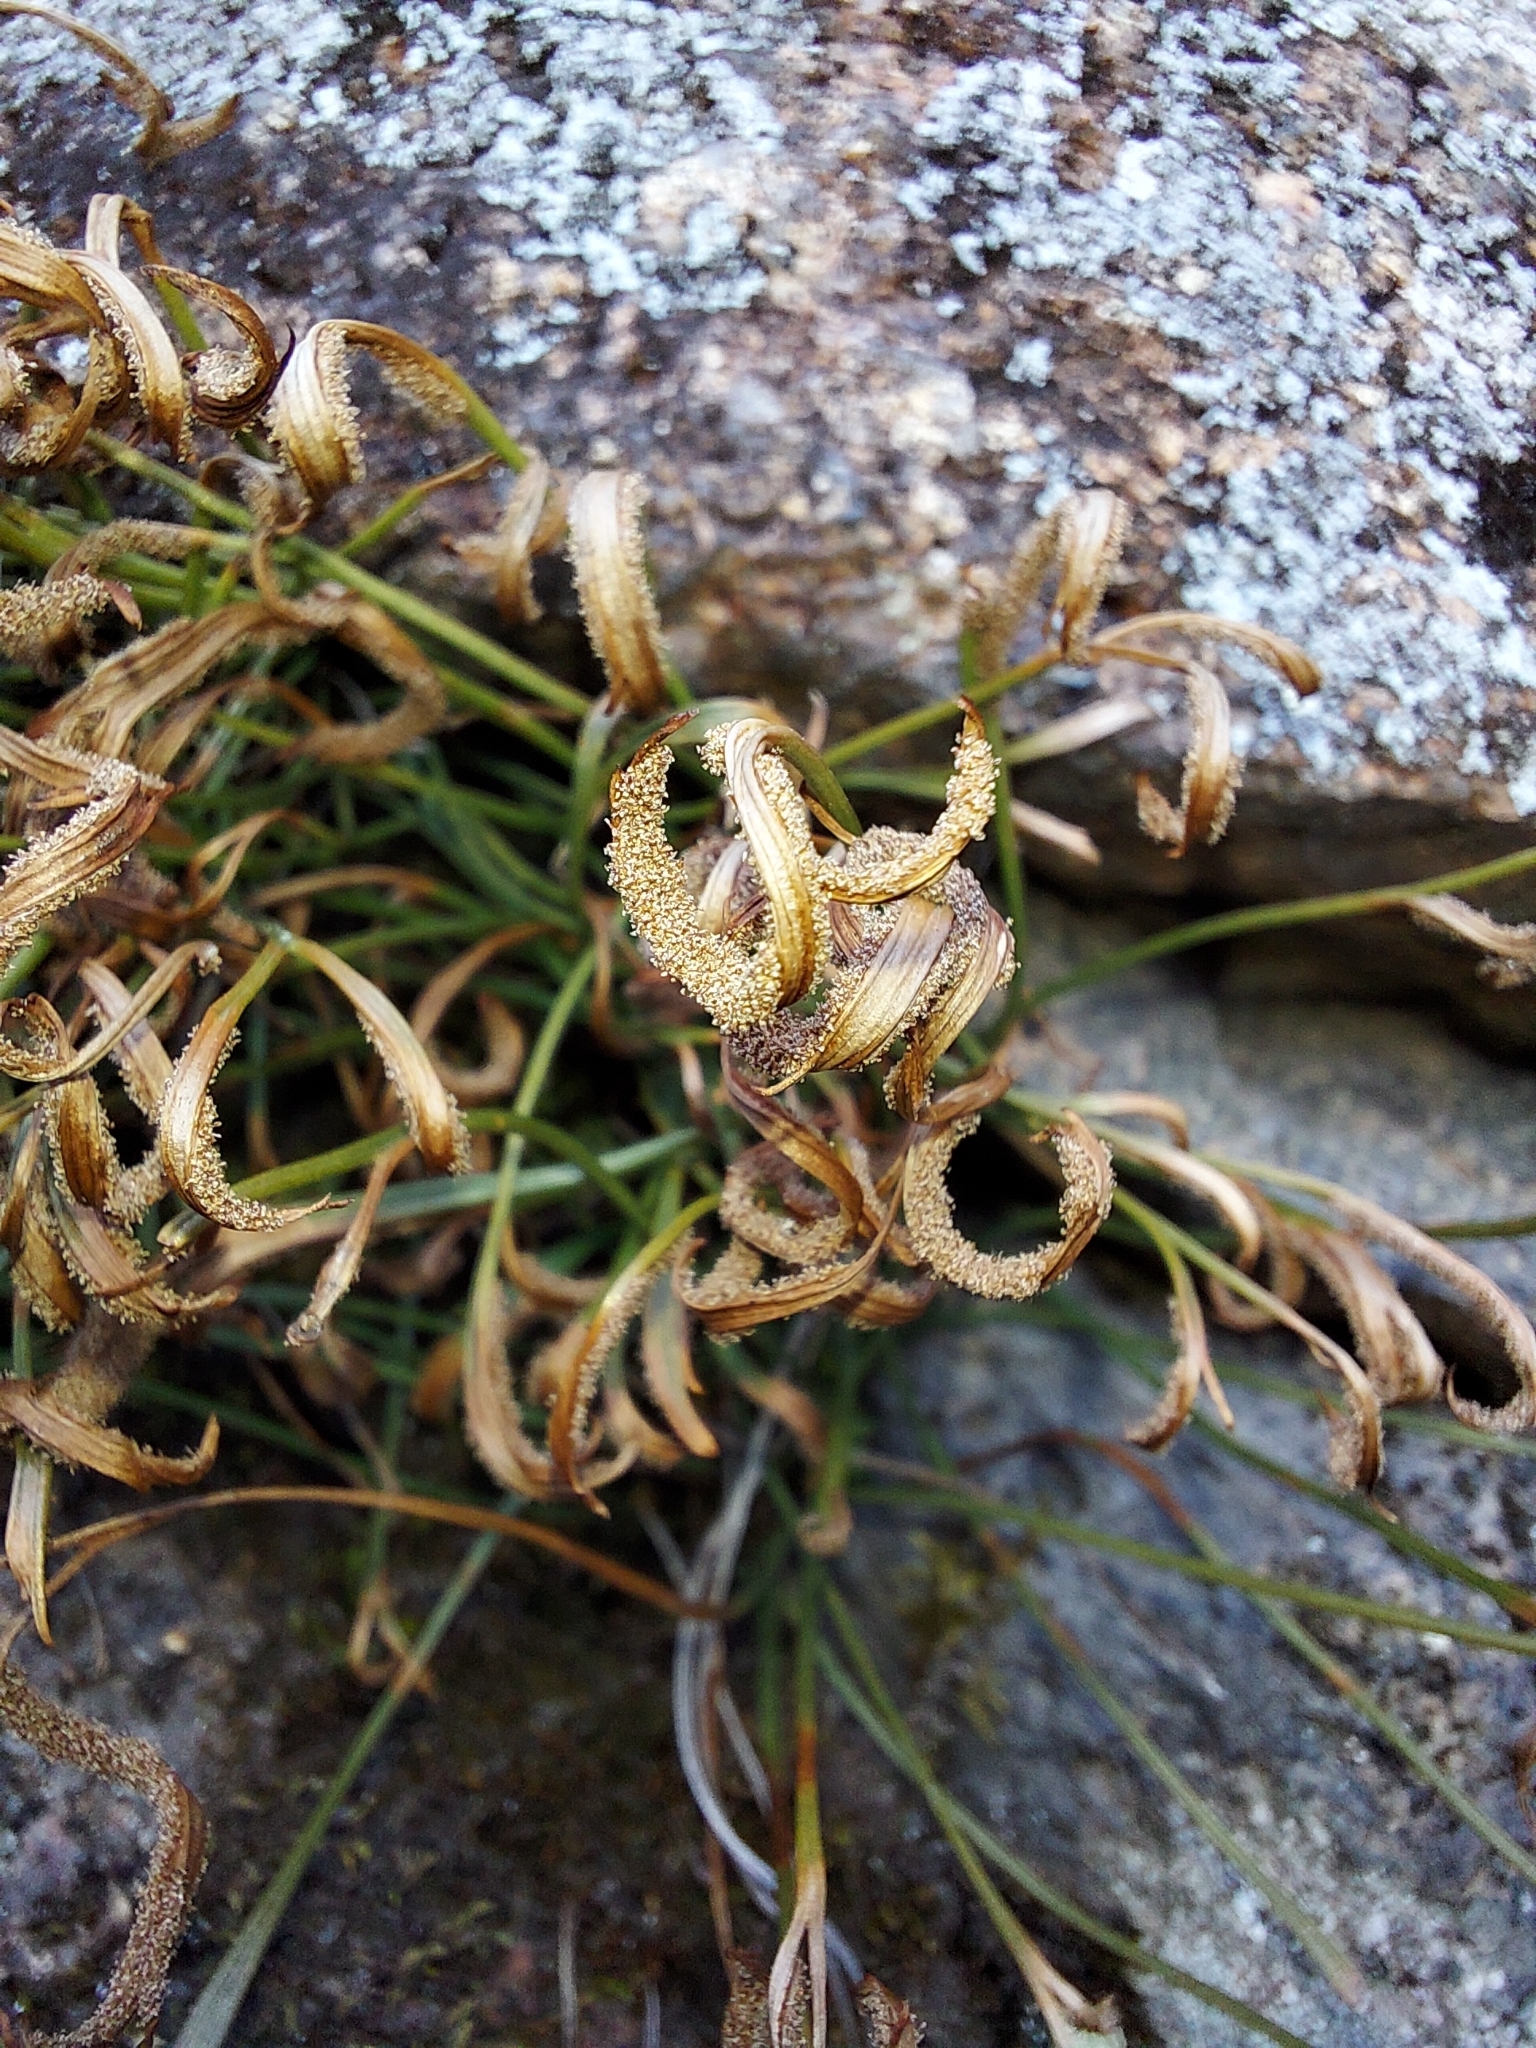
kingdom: Plantae
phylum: Tracheophyta
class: Polypodiopsida
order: Polypodiales
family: Aspleniaceae
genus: Asplenium
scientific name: Asplenium septentrionale
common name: Forked spleenwort
